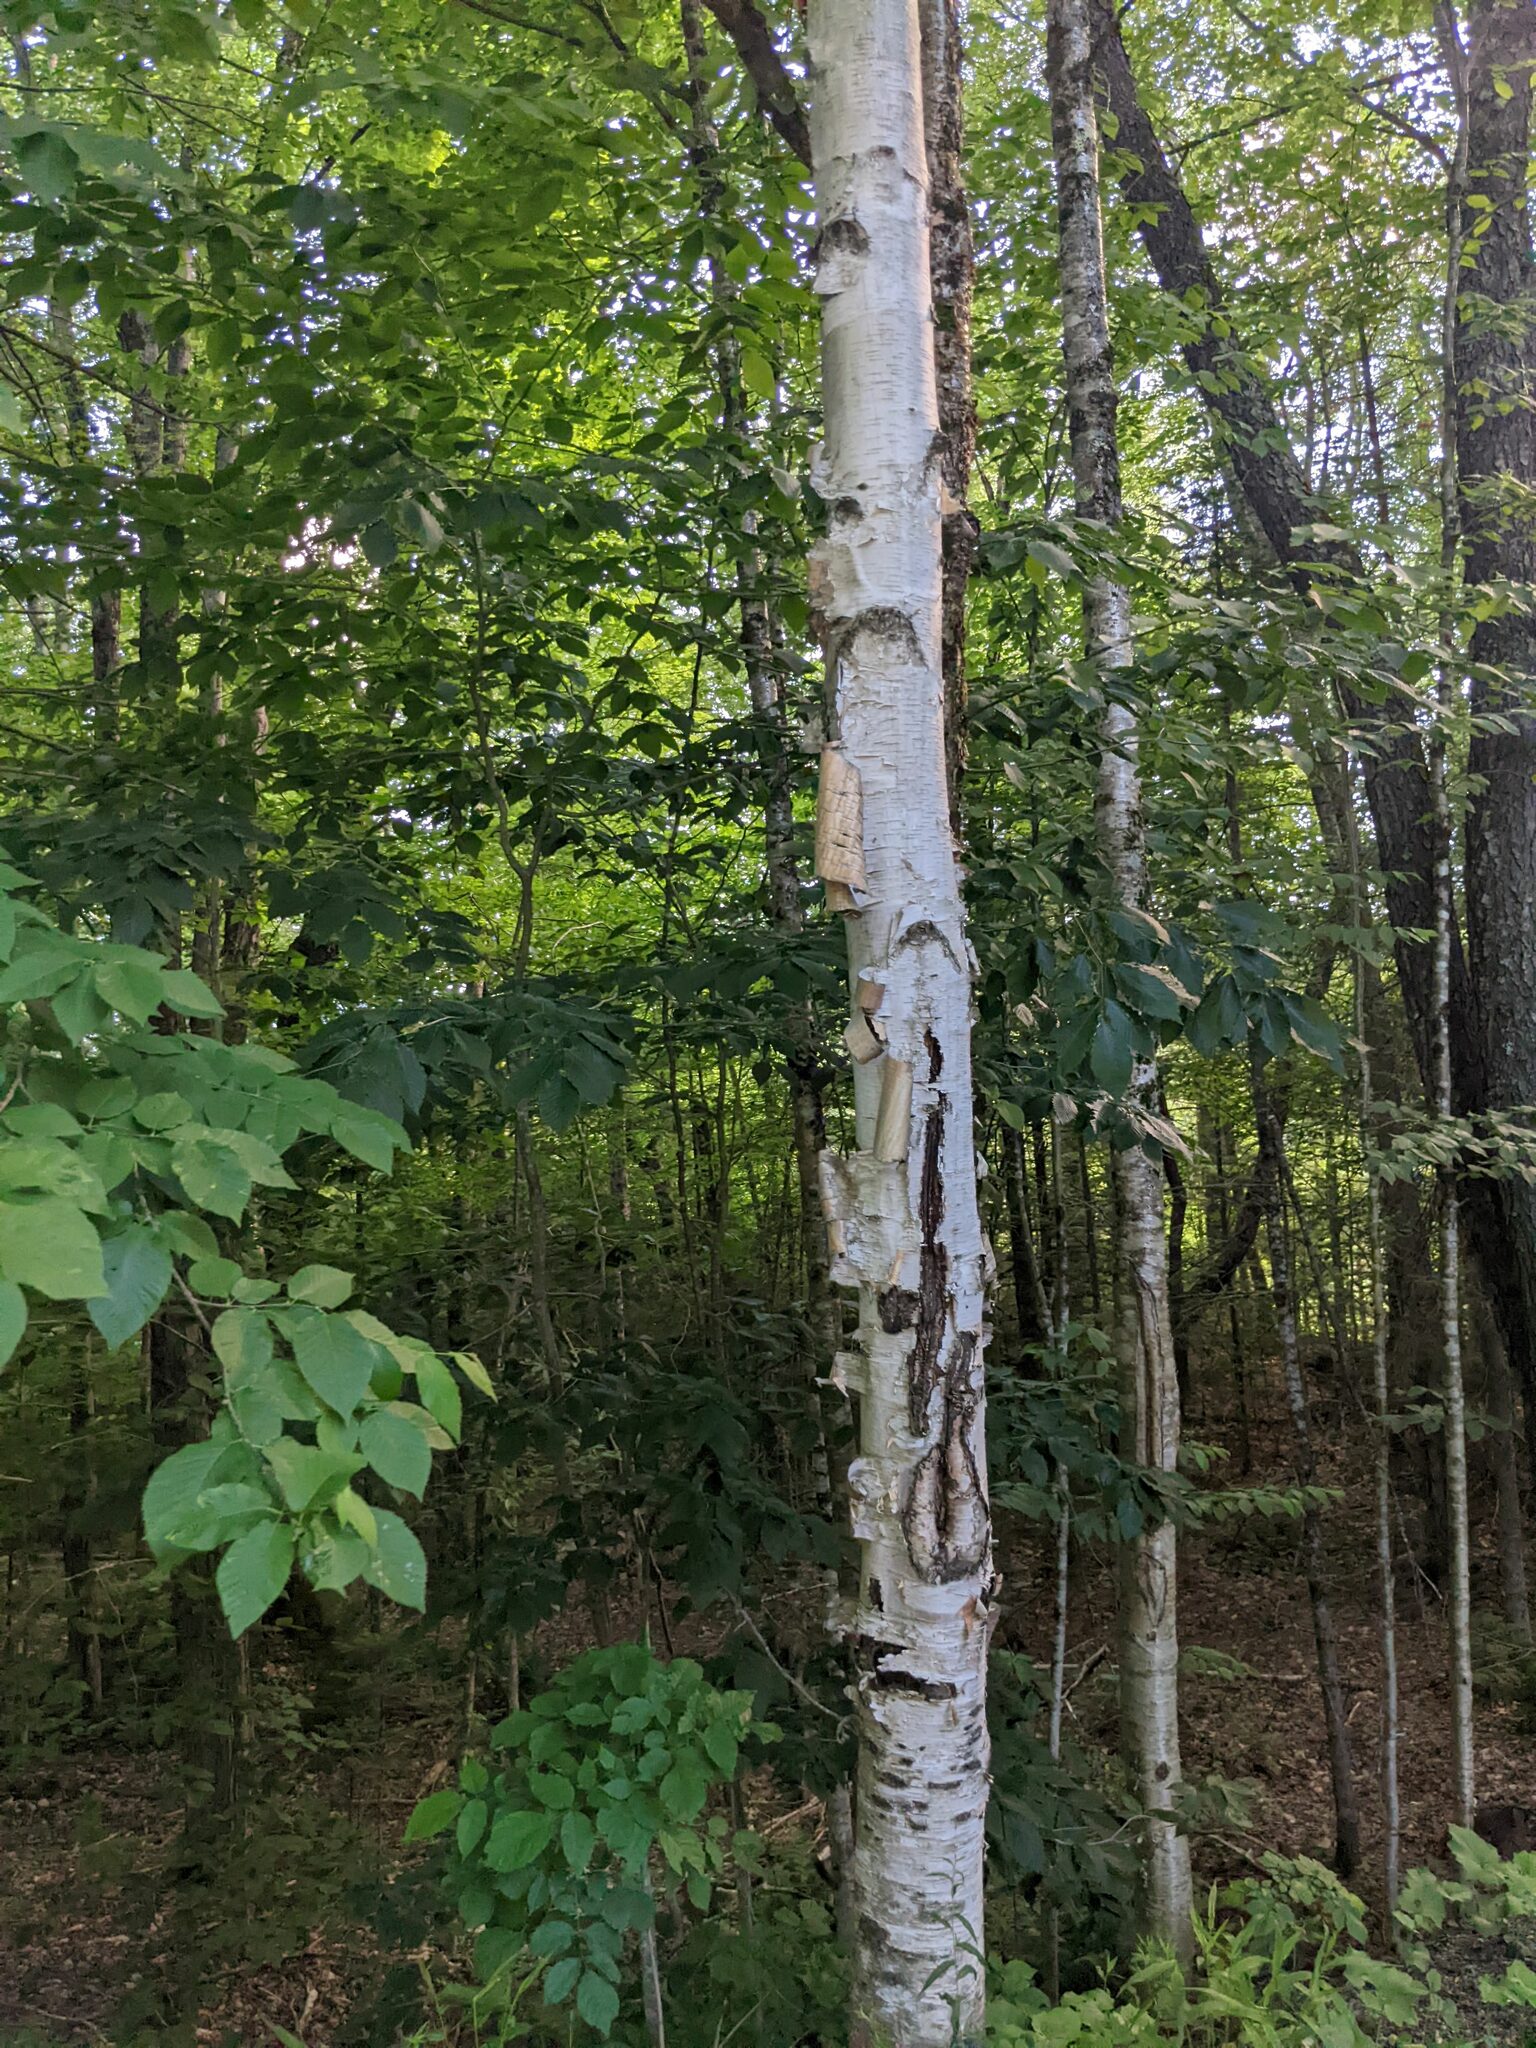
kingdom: Plantae
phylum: Tracheophyta
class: Magnoliopsida
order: Fagales
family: Betulaceae
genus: Betula
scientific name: Betula papyrifera
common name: Paper birch
